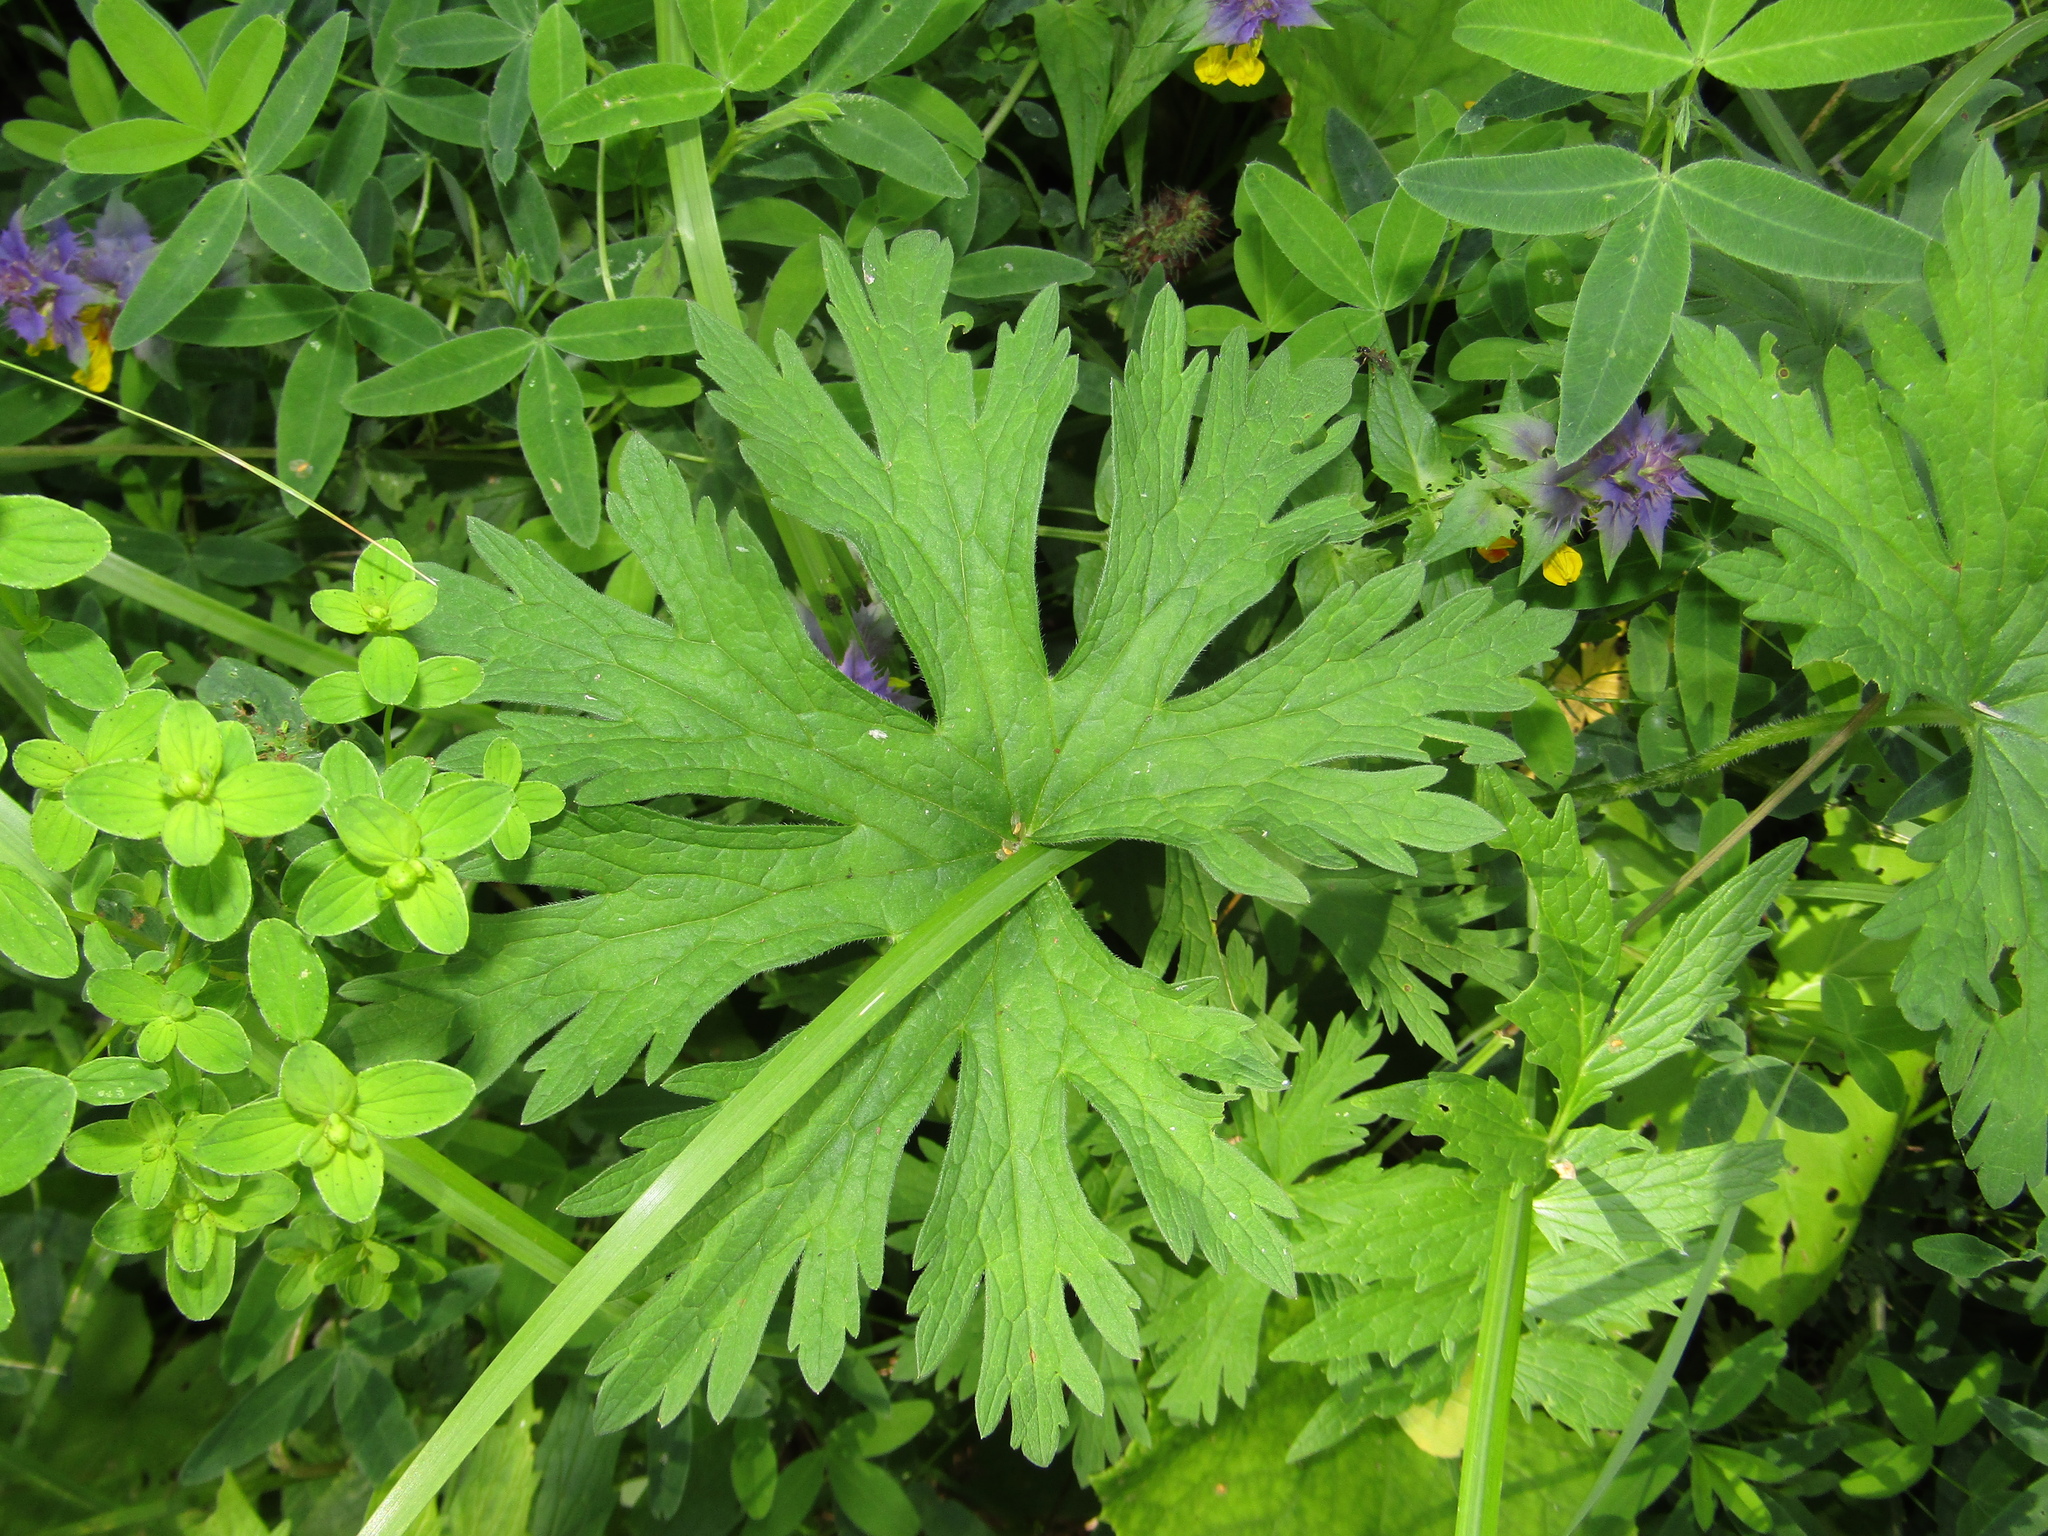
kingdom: Plantae
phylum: Tracheophyta
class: Magnoliopsida
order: Geraniales
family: Geraniaceae
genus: Geranium
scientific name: Geranium pratense
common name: Meadow crane's-bill
